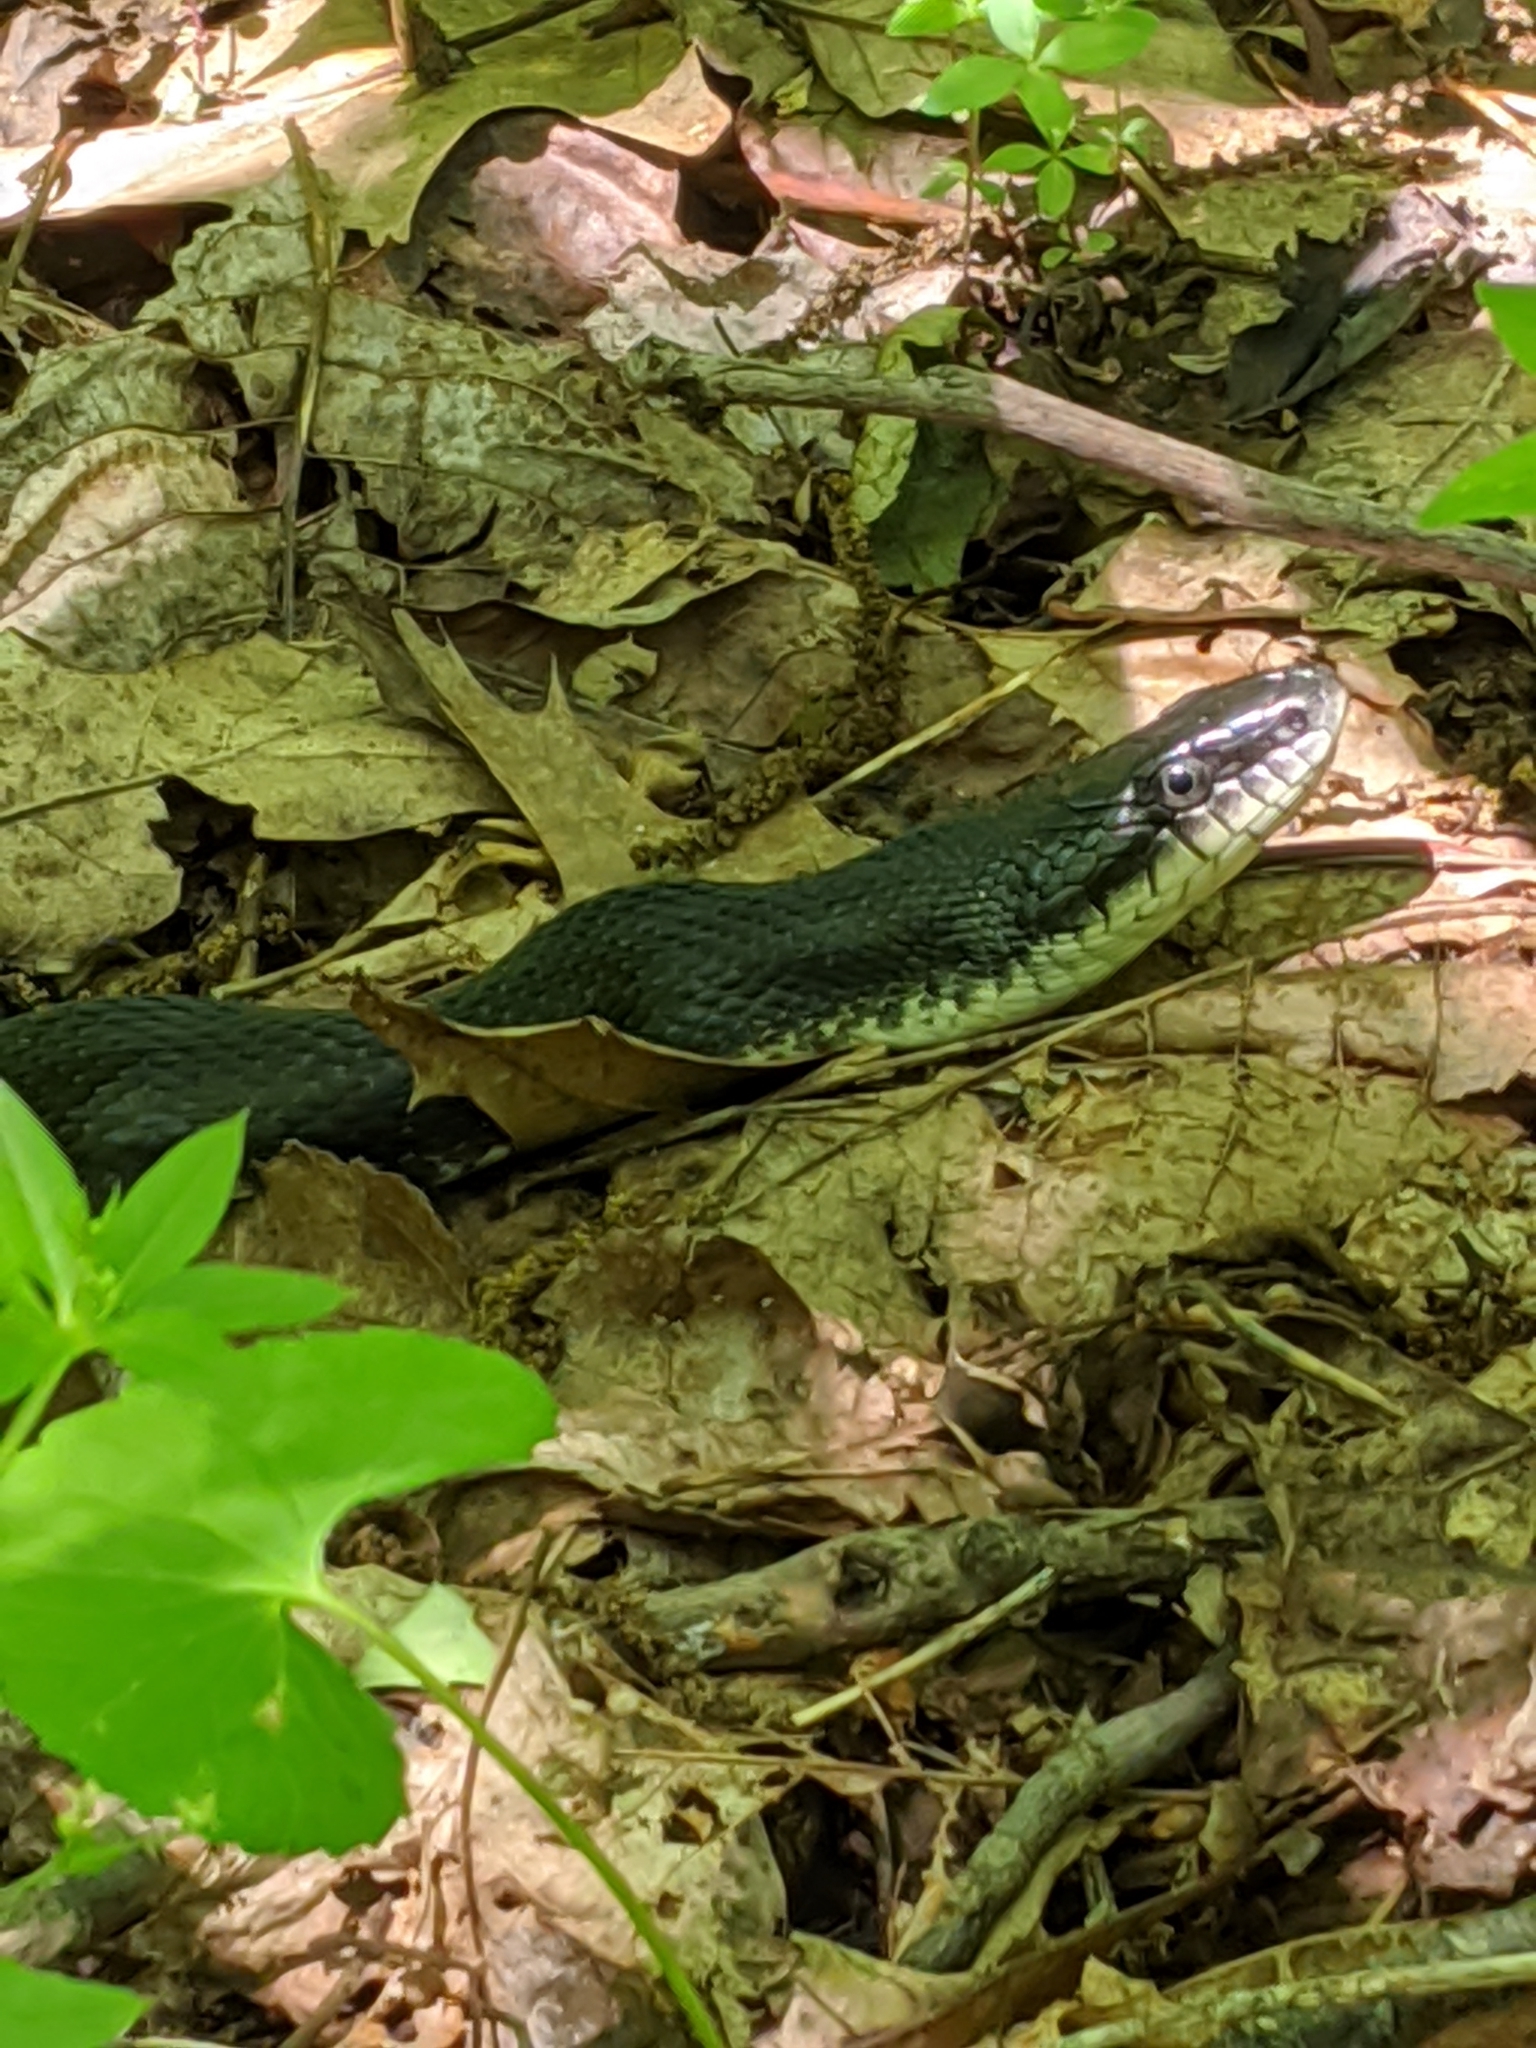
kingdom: Animalia
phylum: Chordata
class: Squamata
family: Colubridae
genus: Pantherophis
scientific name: Pantherophis alleghaniensis
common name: Eastern rat snake
